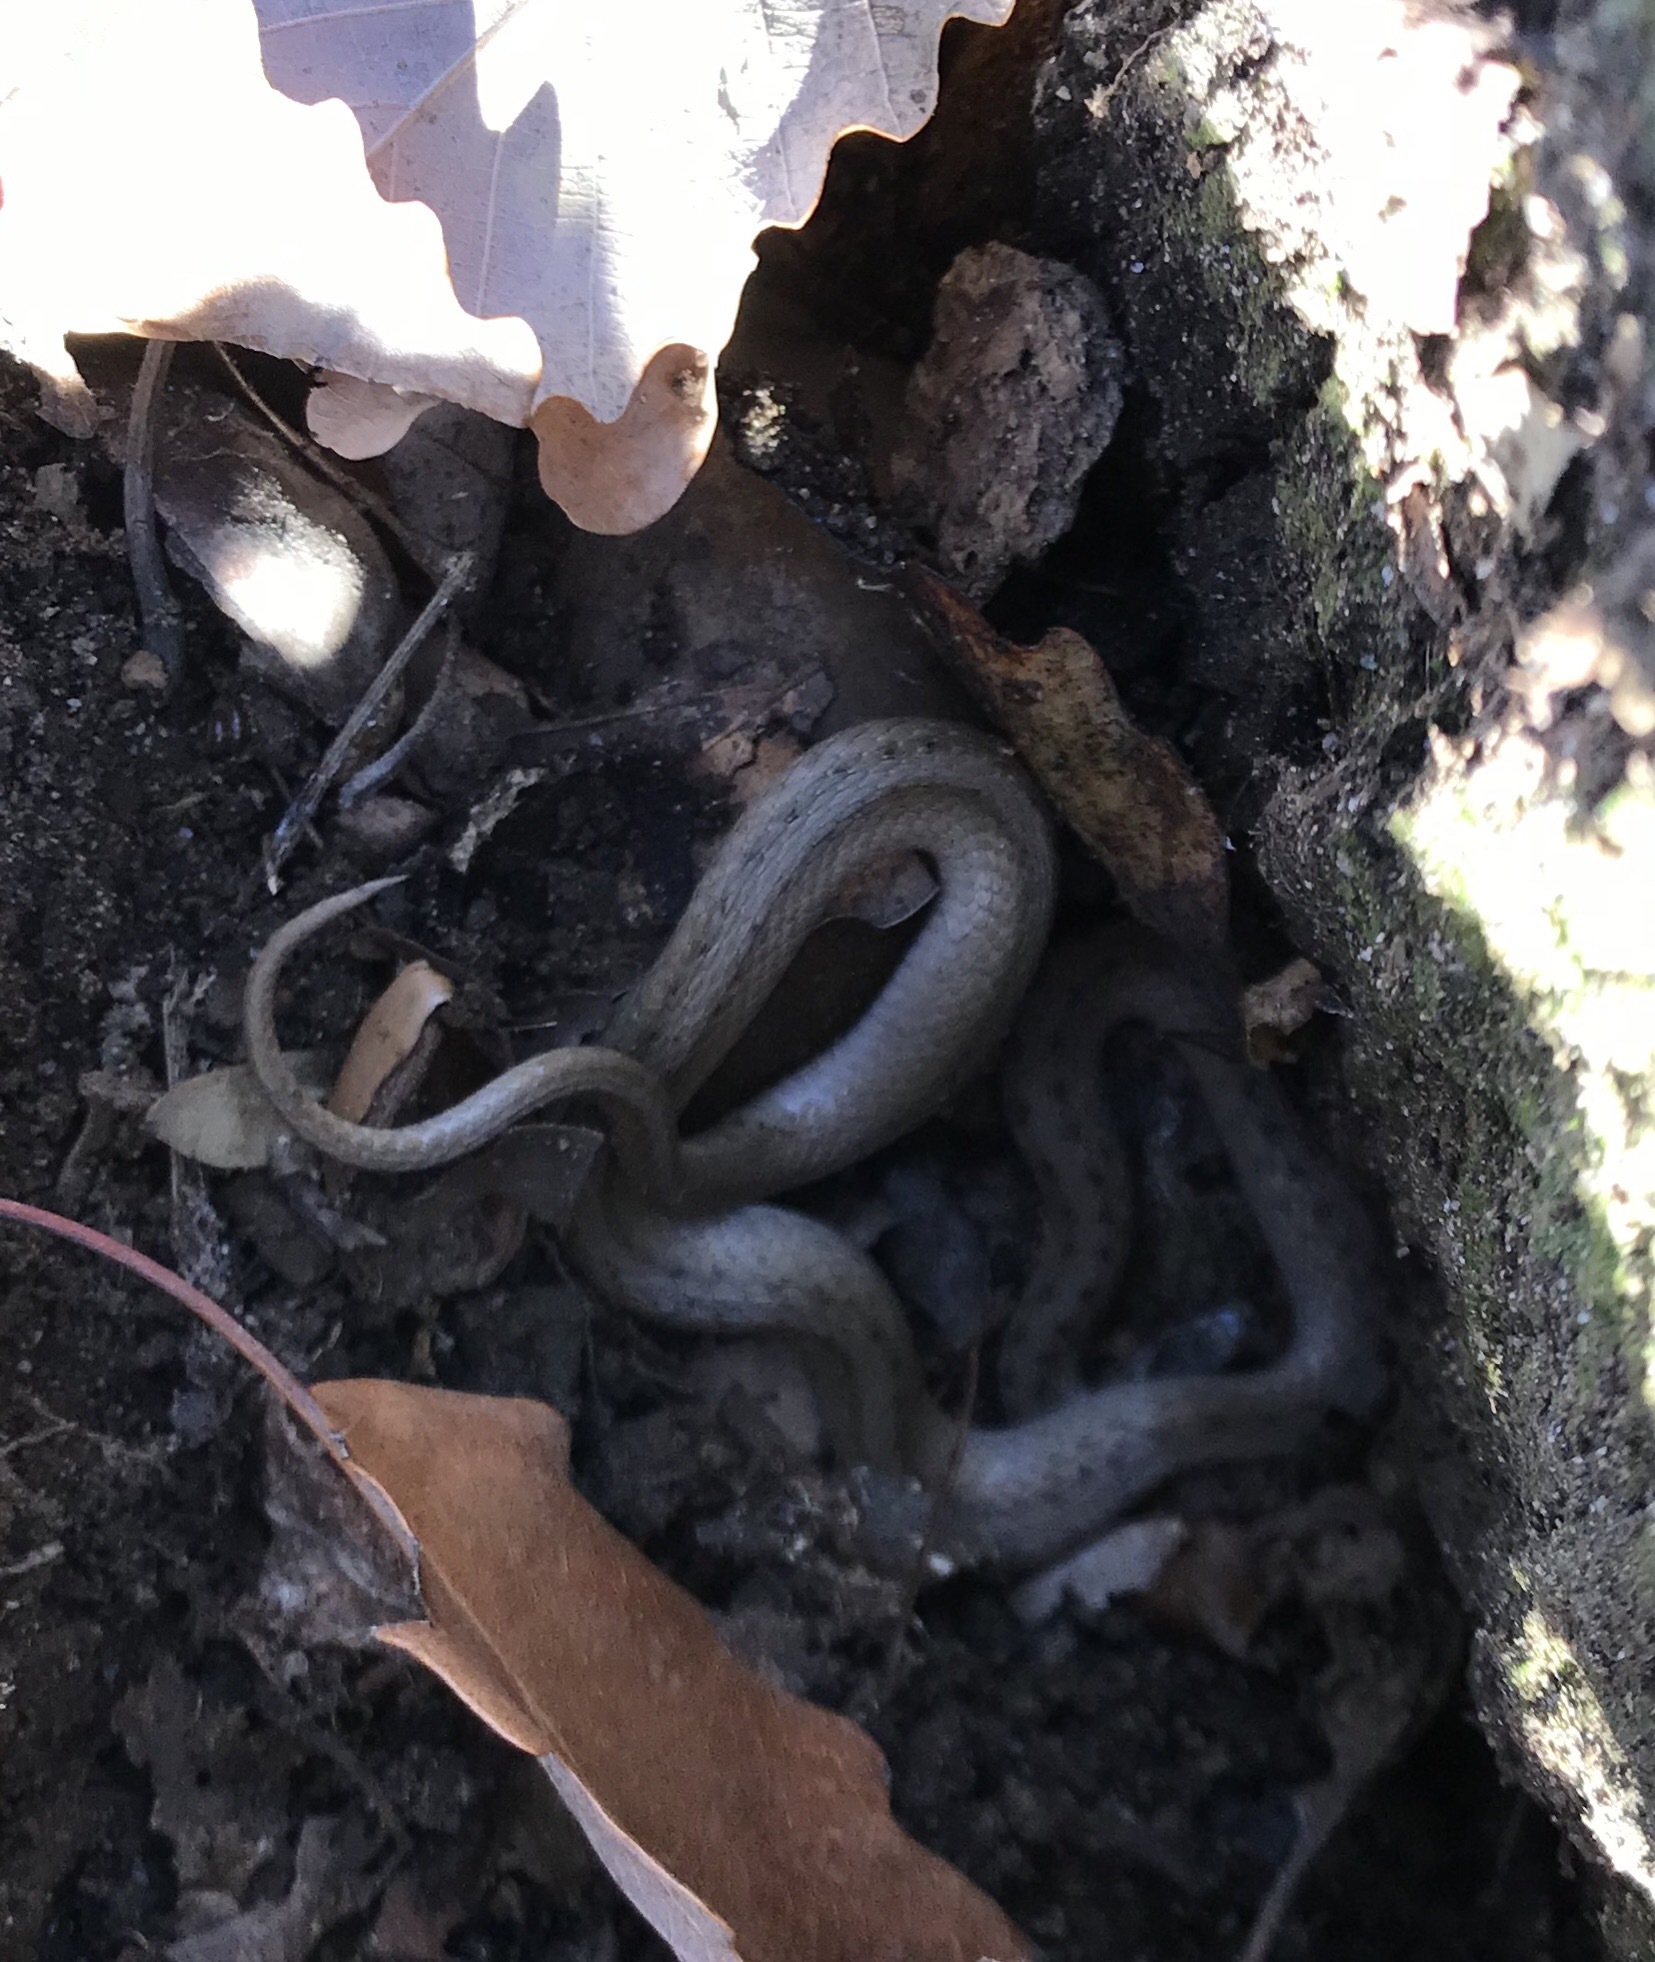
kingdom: Animalia
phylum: Chordata
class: Squamata
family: Colubridae
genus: Storeria
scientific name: Storeria dekayi
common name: (dekay’s) brown snake
